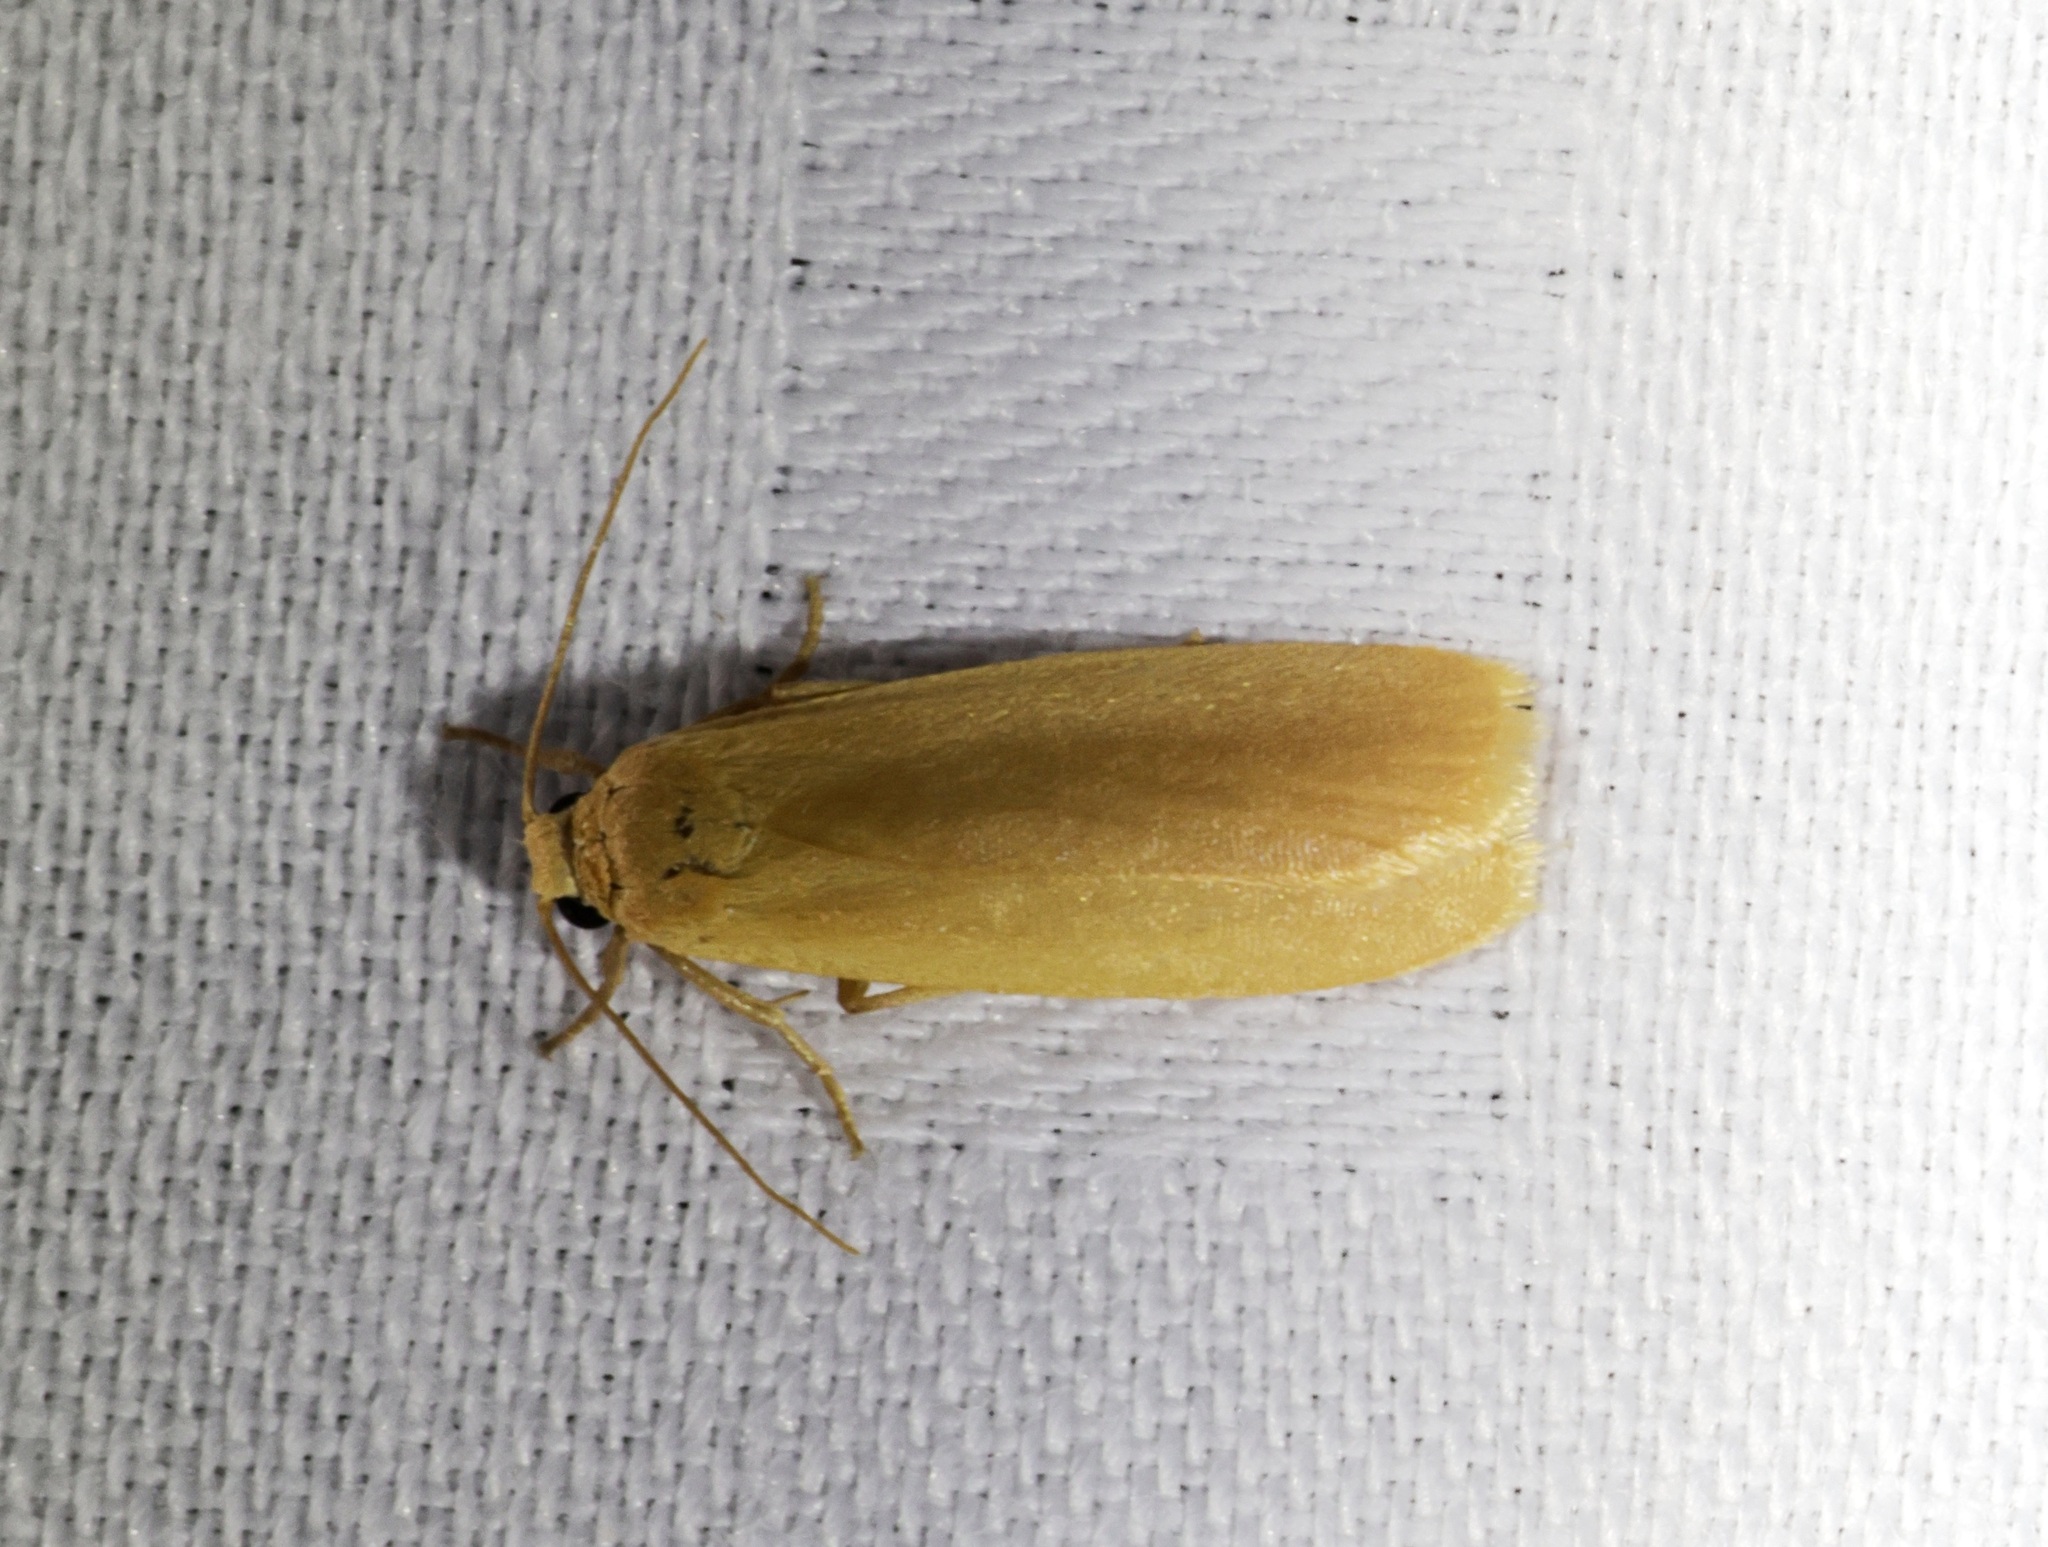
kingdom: Animalia
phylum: Arthropoda
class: Insecta
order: Lepidoptera
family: Erebidae
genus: Danielithosia
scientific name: Danielithosia immaculata
